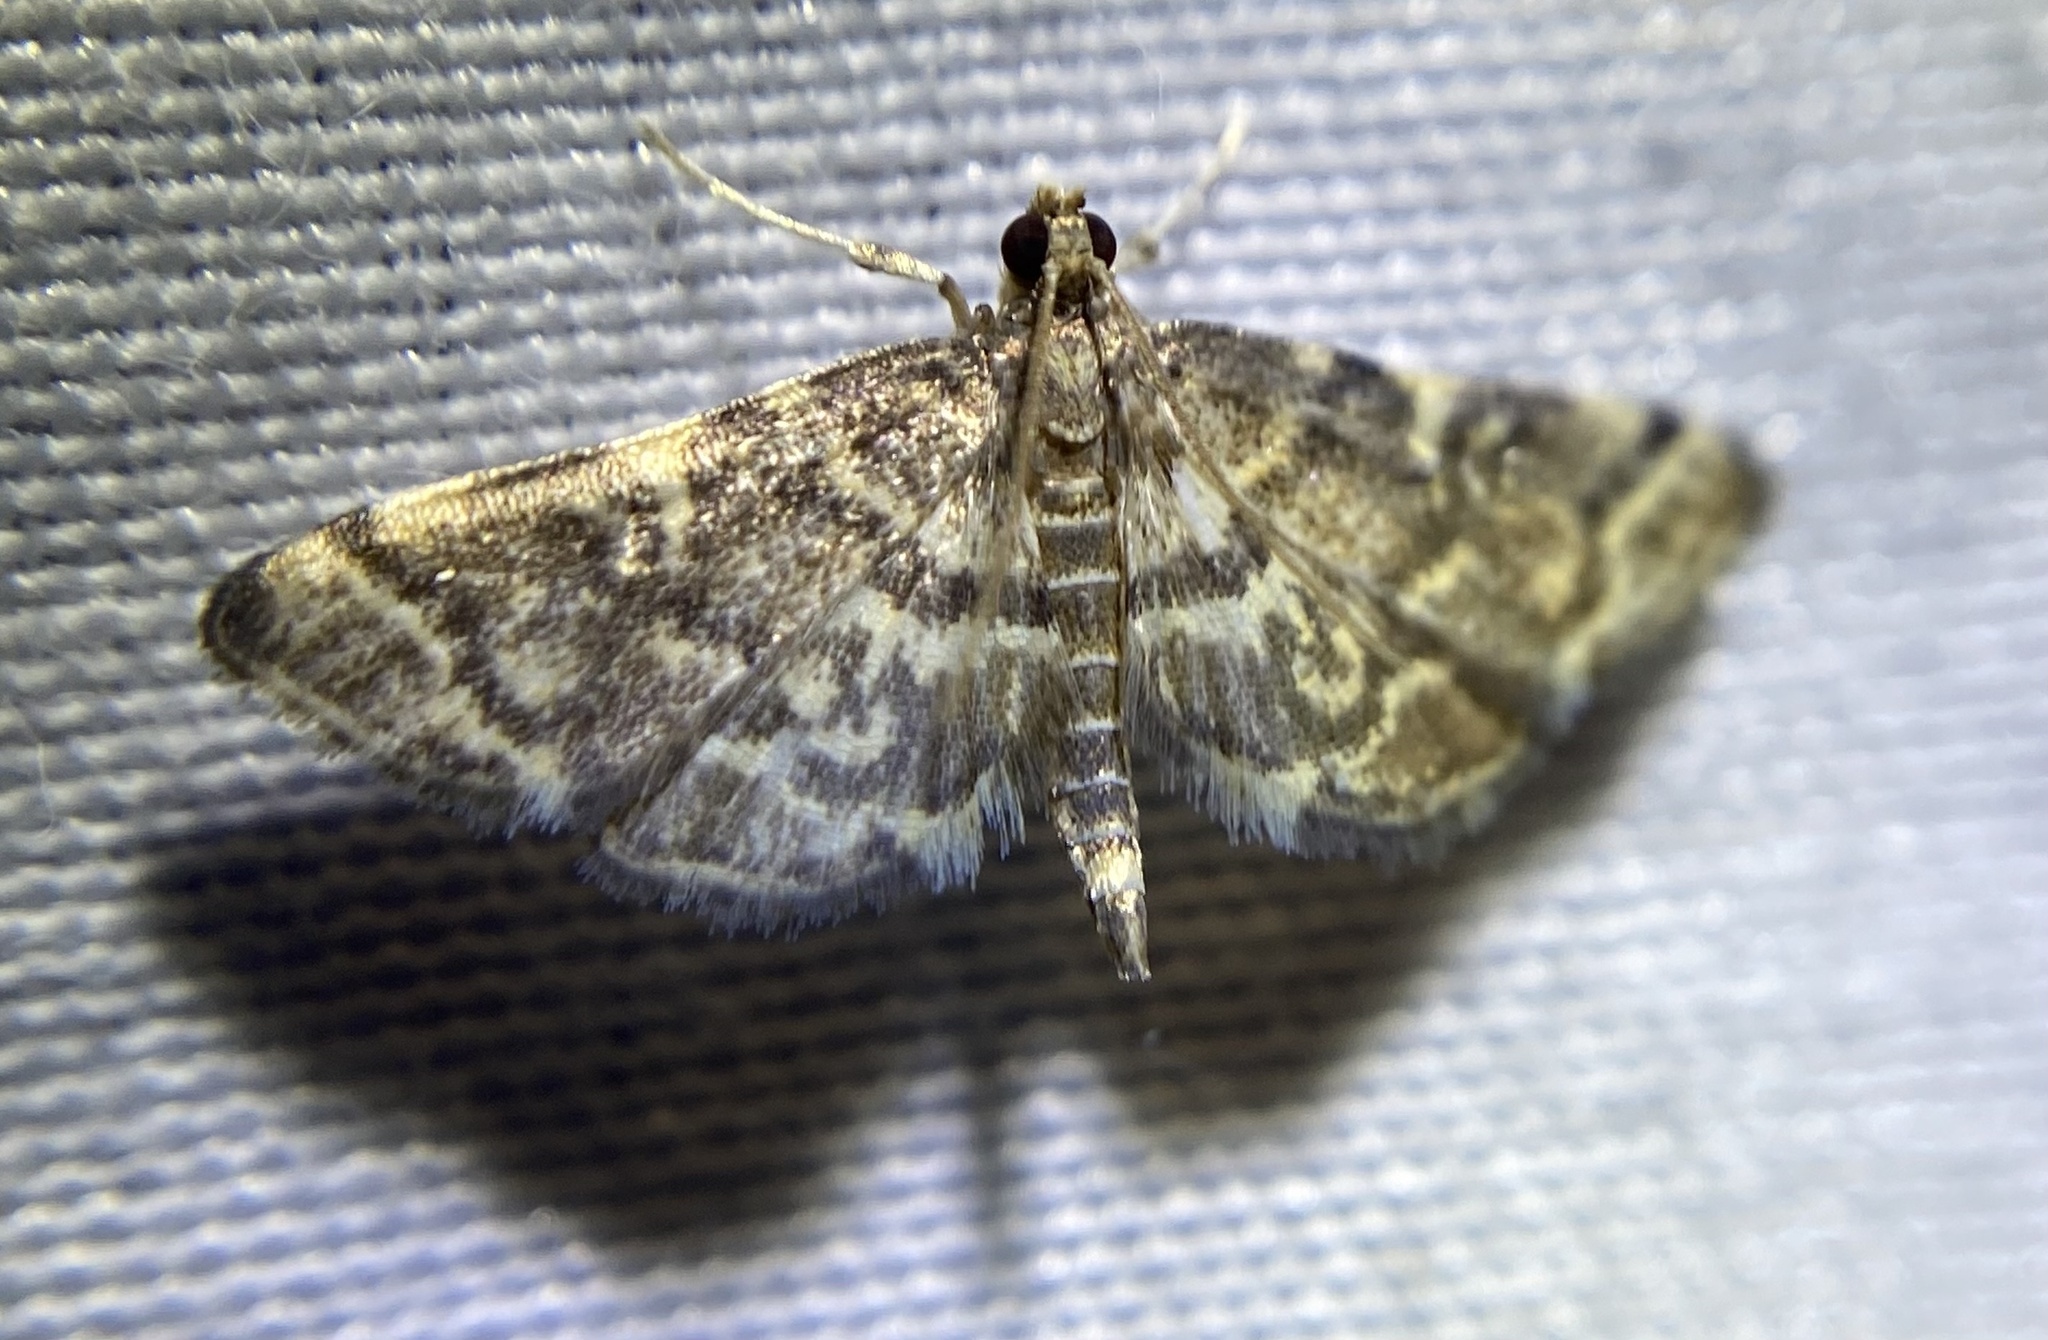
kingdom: Animalia
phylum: Arthropoda
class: Insecta
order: Lepidoptera
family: Crambidae
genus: Anageshna
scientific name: Anageshna primordialis
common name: Yellow-spotted webworm moth
